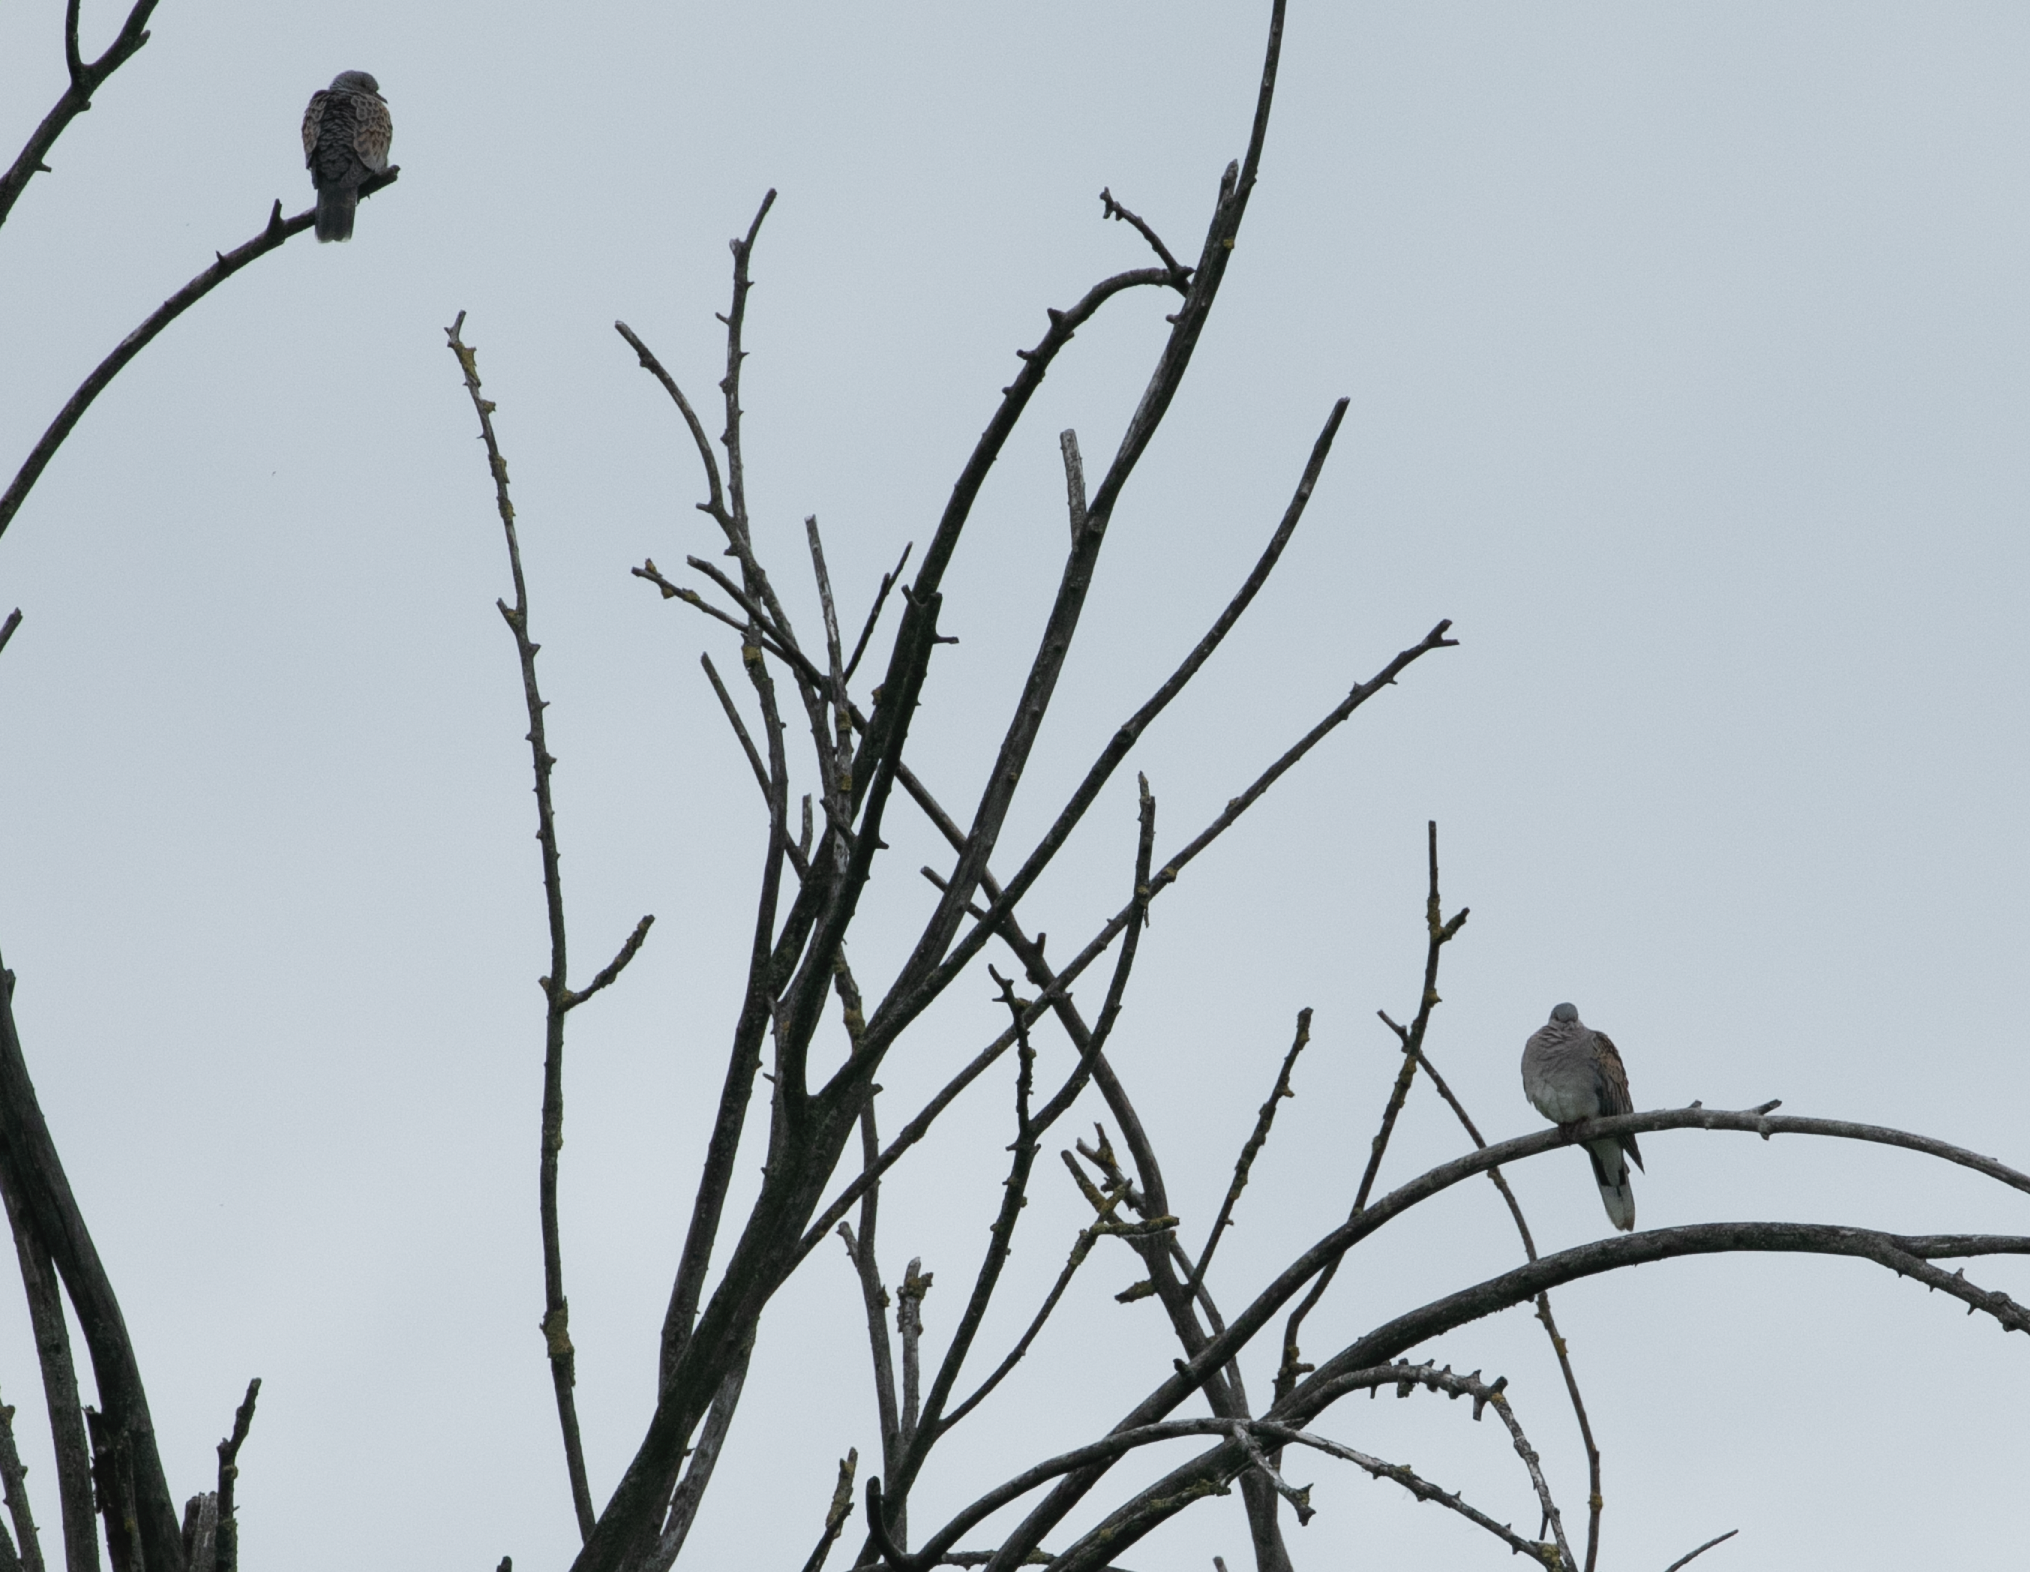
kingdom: Animalia
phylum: Chordata
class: Aves
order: Columbiformes
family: Columbidae
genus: Streptopelia
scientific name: Streptopelia turtur
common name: European turtle dove
